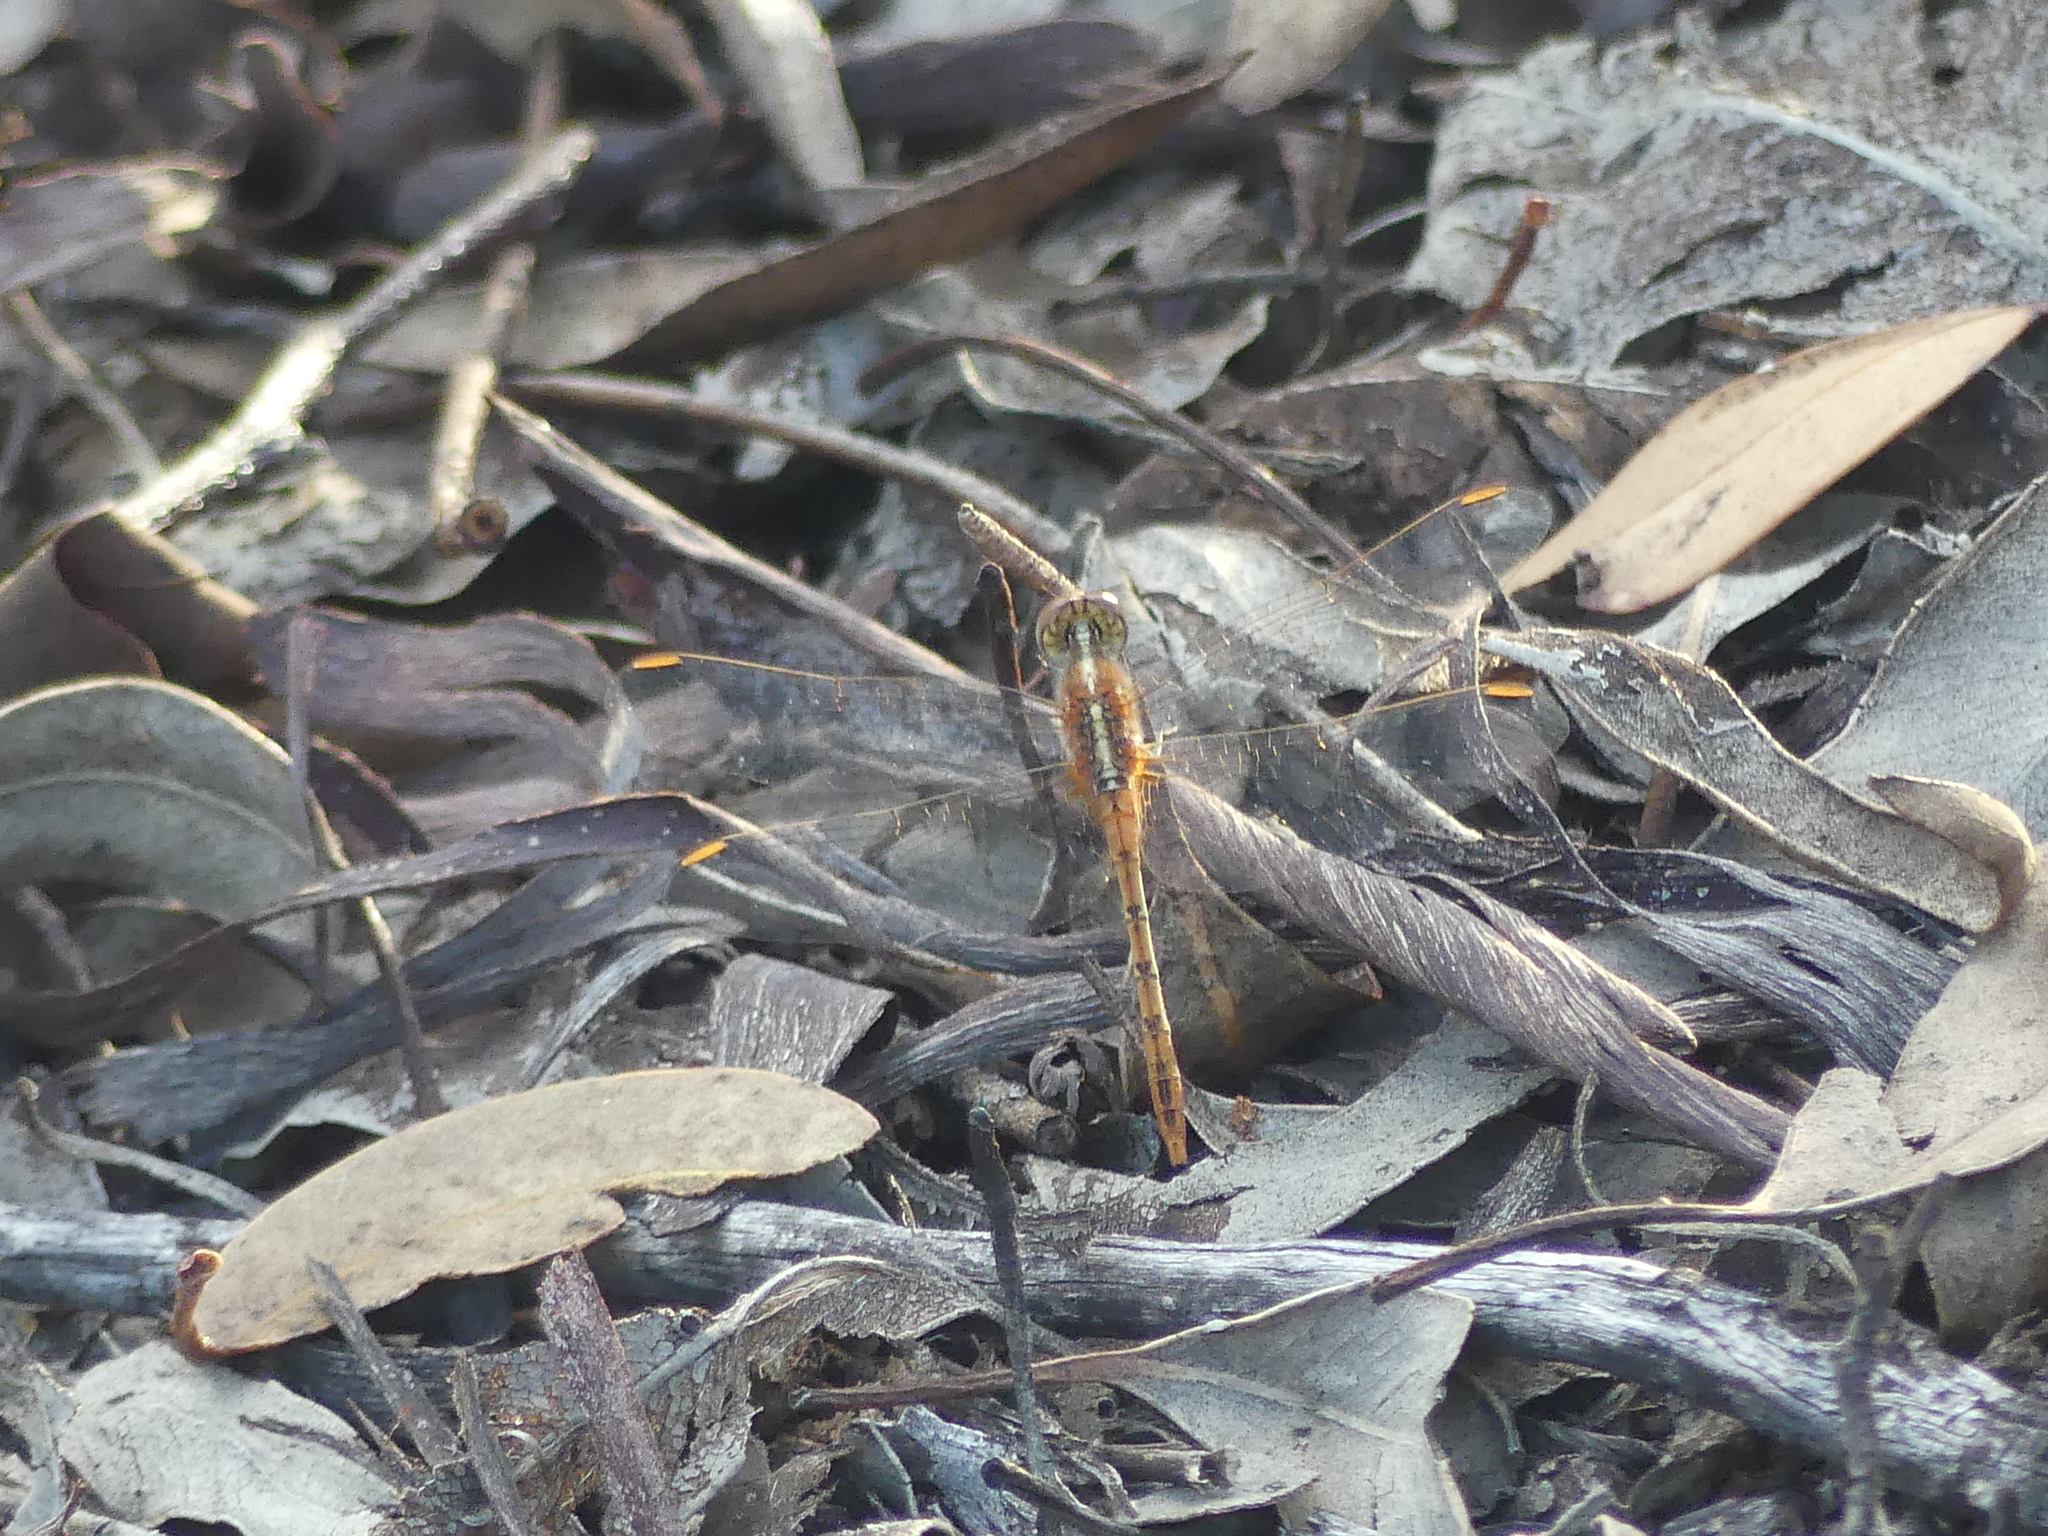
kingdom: Animalia
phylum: Arthropoda
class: Insecta
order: Odonata
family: Libellulidae
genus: Diplacodes
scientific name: Diplacodes bipunctata
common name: Red percher dragonfly
